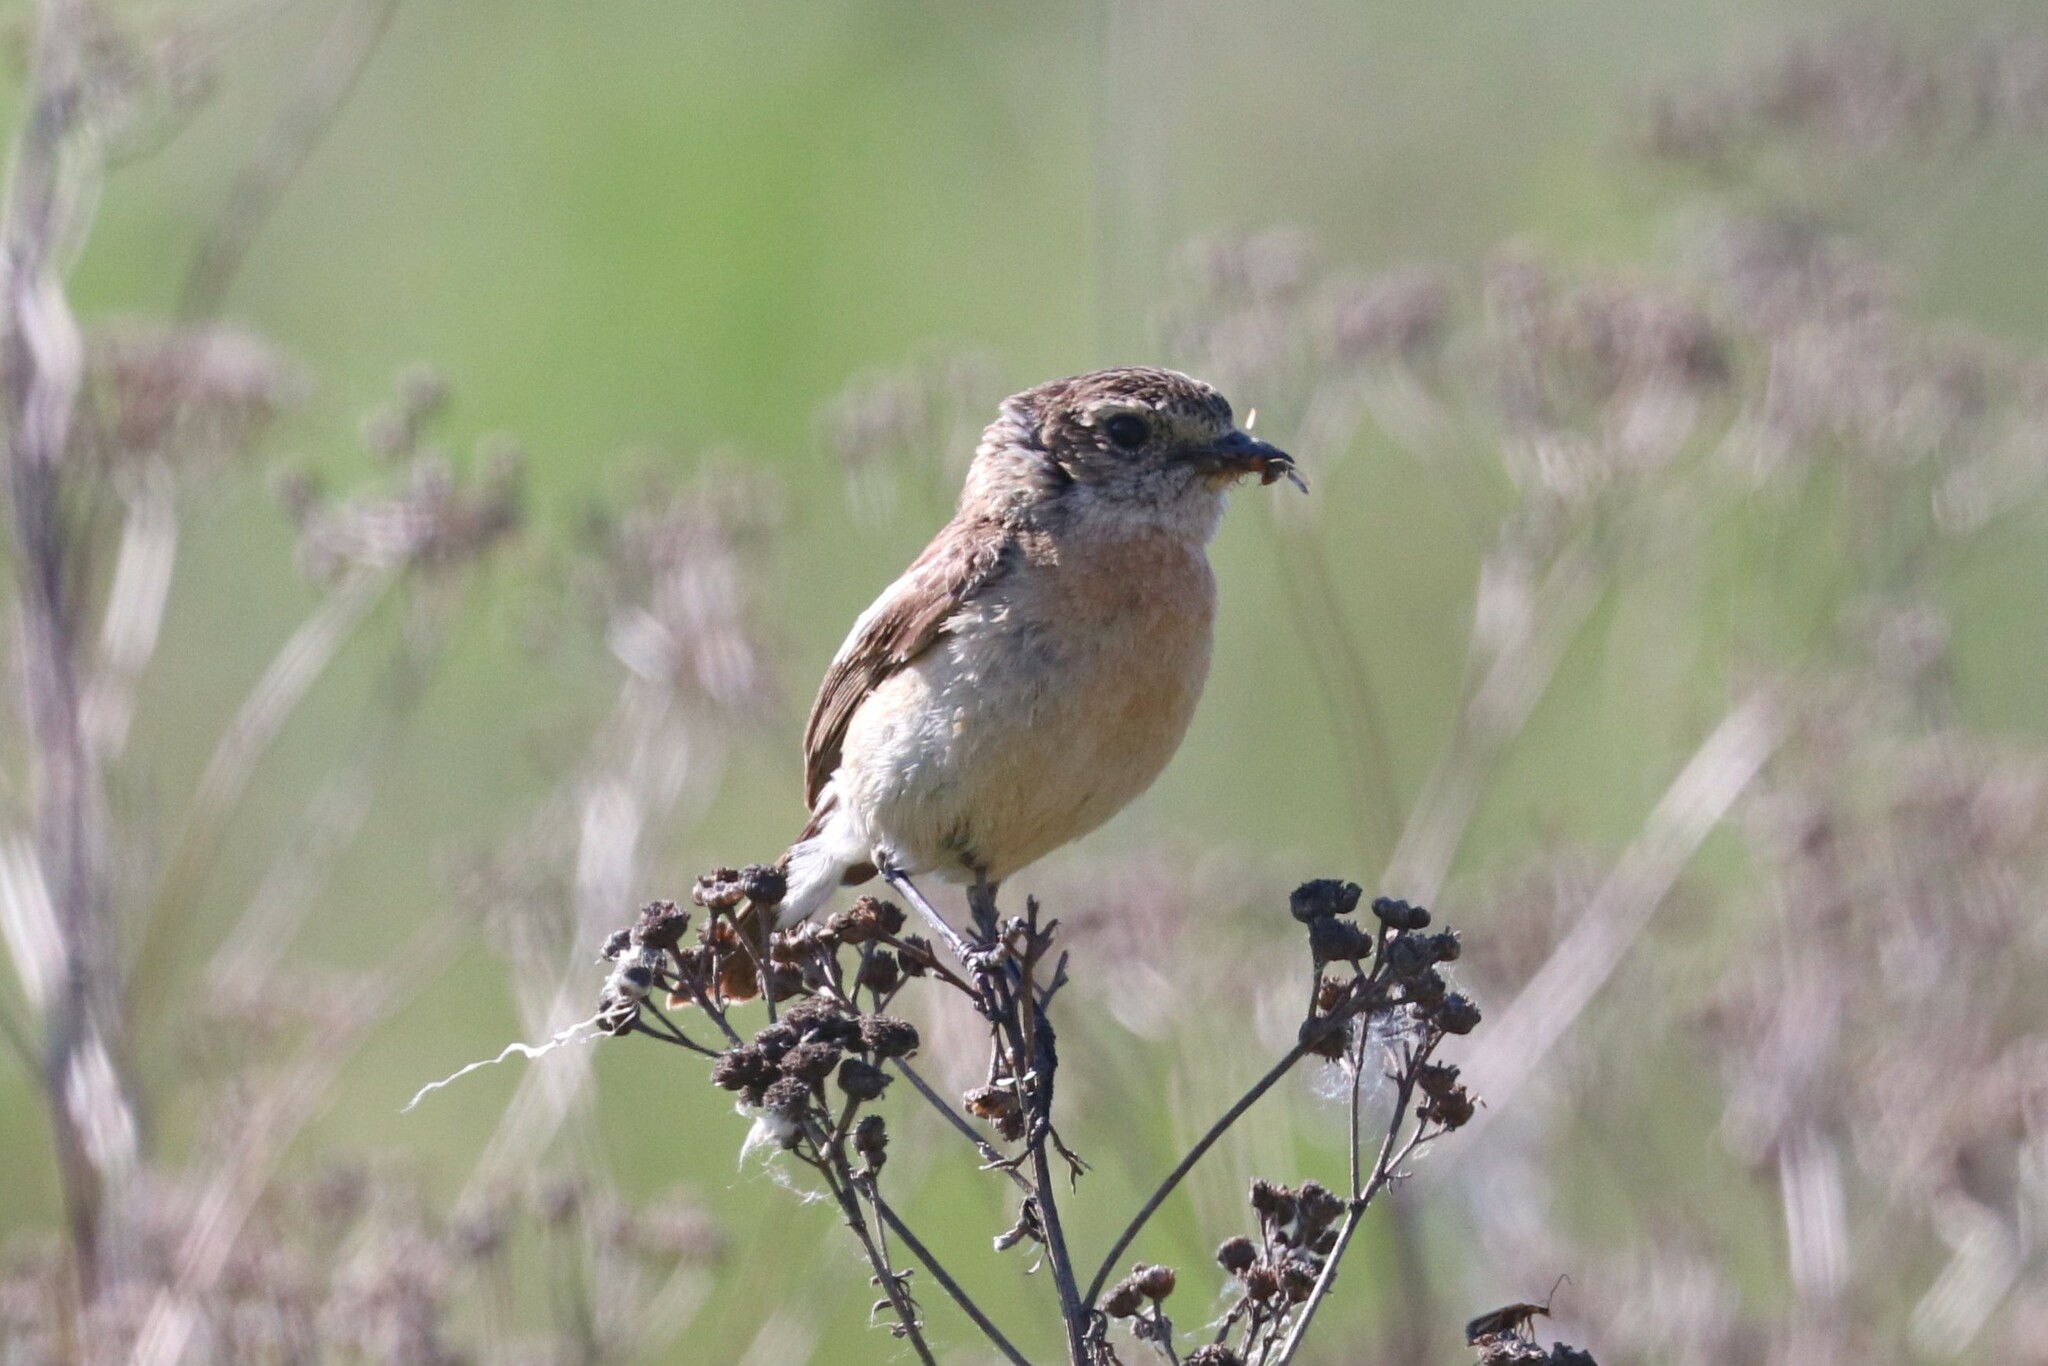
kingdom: Animalia
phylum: Chordata
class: Aves
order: Passeriformes
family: Muscicapidae
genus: Saxicola
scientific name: Saxicola maurus
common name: Siberian stonechat
